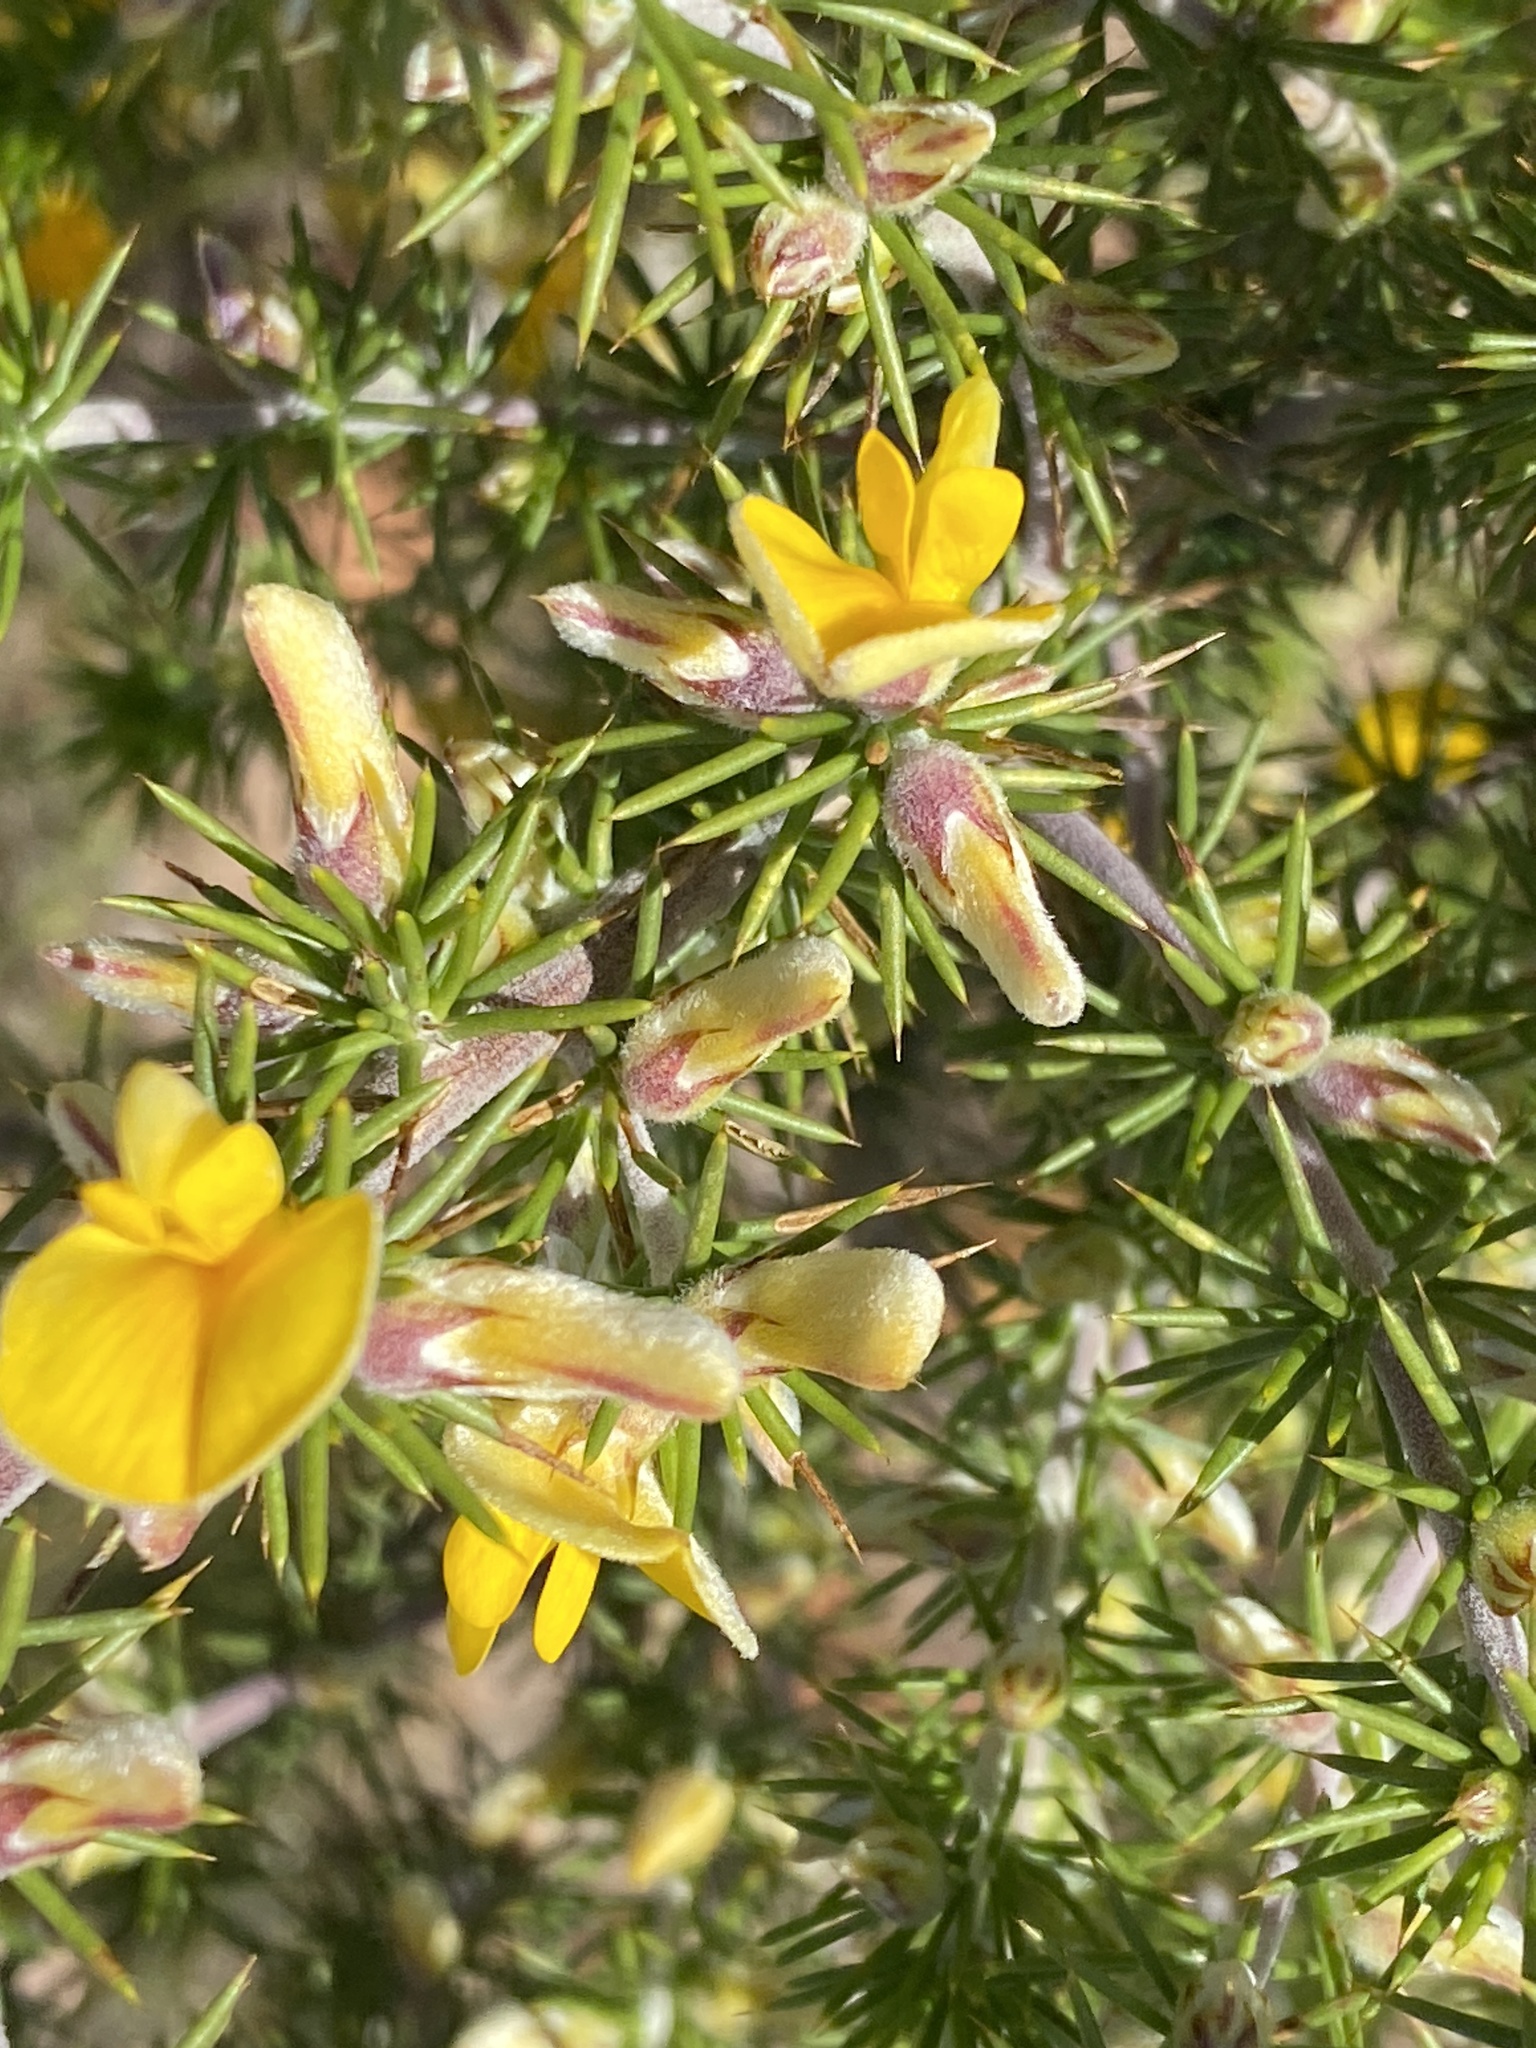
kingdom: Plantae
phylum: Tracheophyta
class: Magnoliopsida
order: Fabales
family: Fabaceae
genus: Aspalathus
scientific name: Aspalathus hirta
